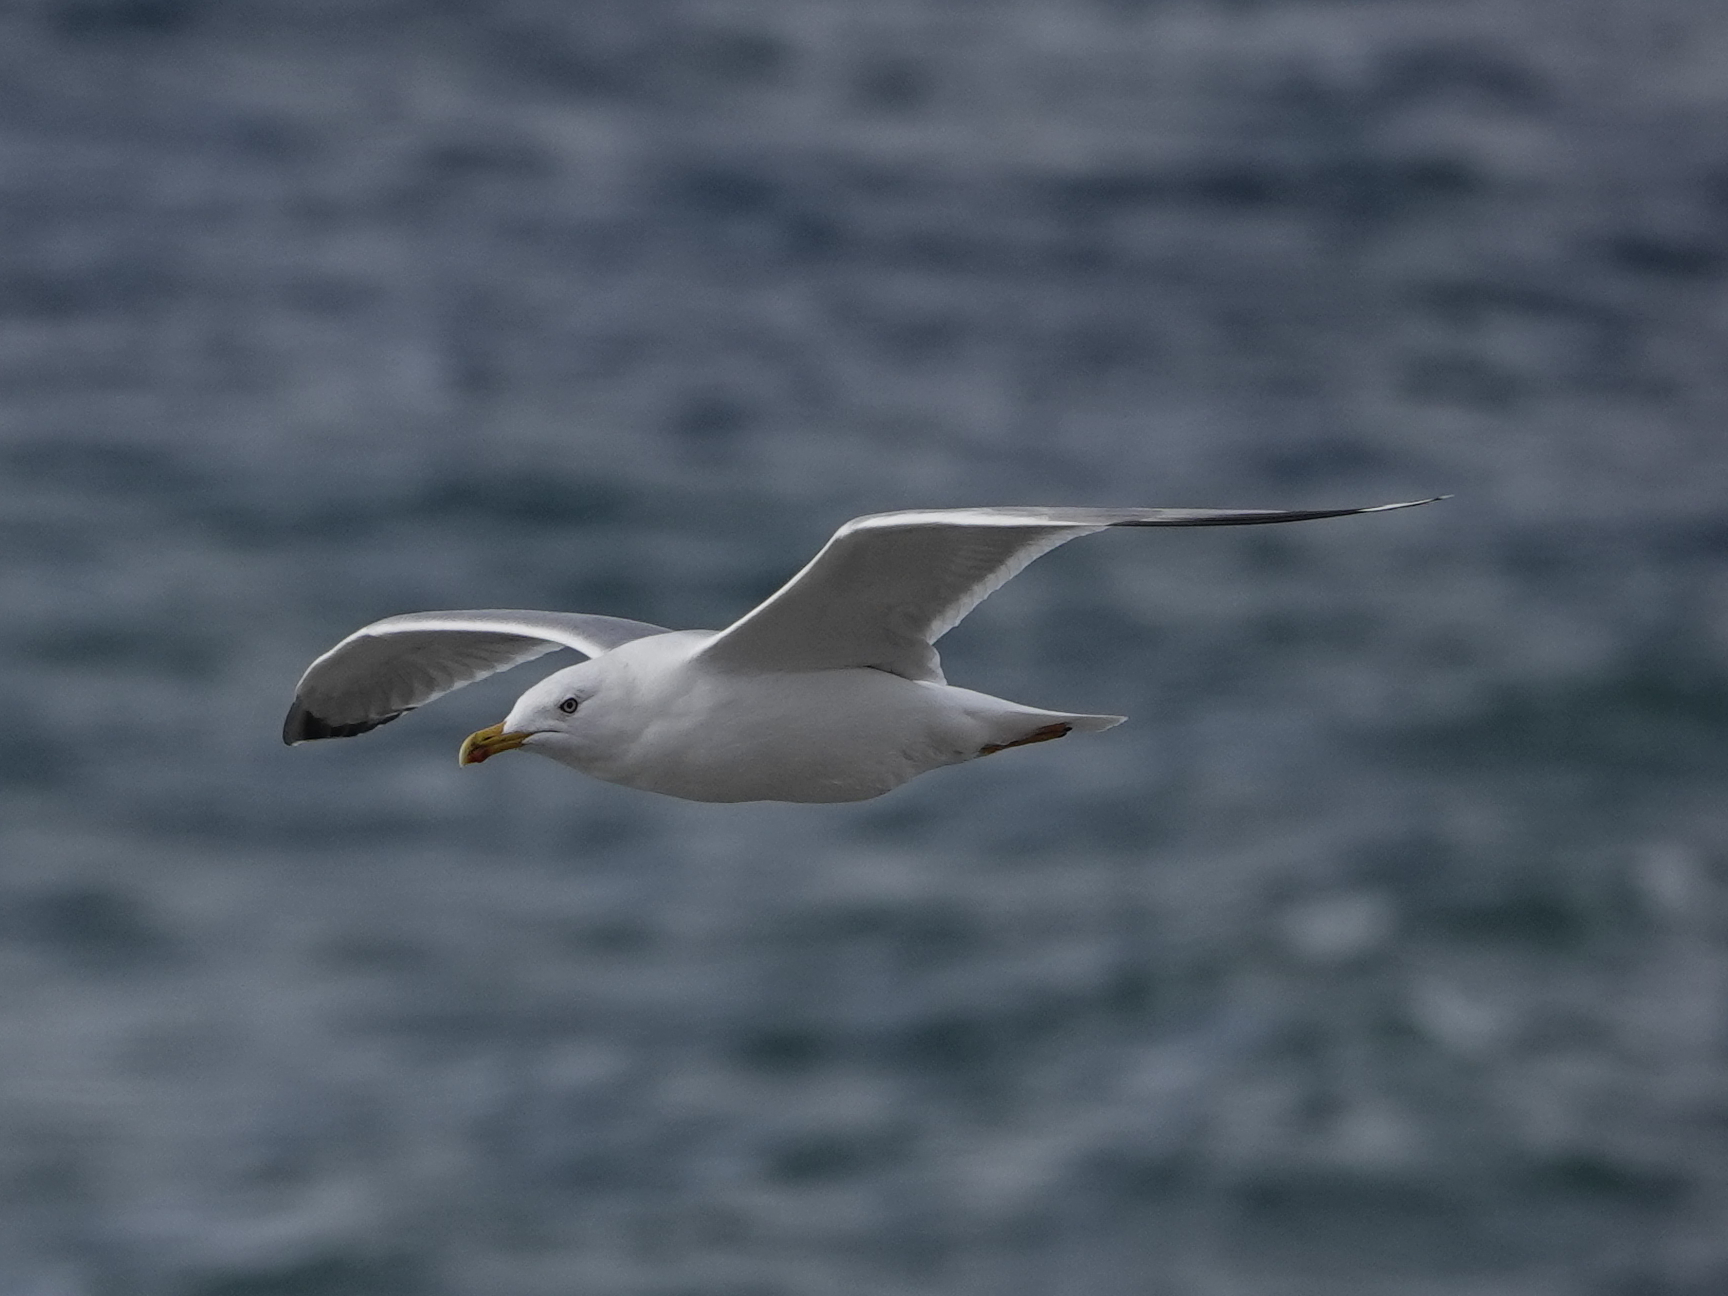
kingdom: Animalia
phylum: Chordata
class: Aves
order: Charadriiformes
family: Laridae
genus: Larus
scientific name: Larus michahellis
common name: Yellow-legged gull
